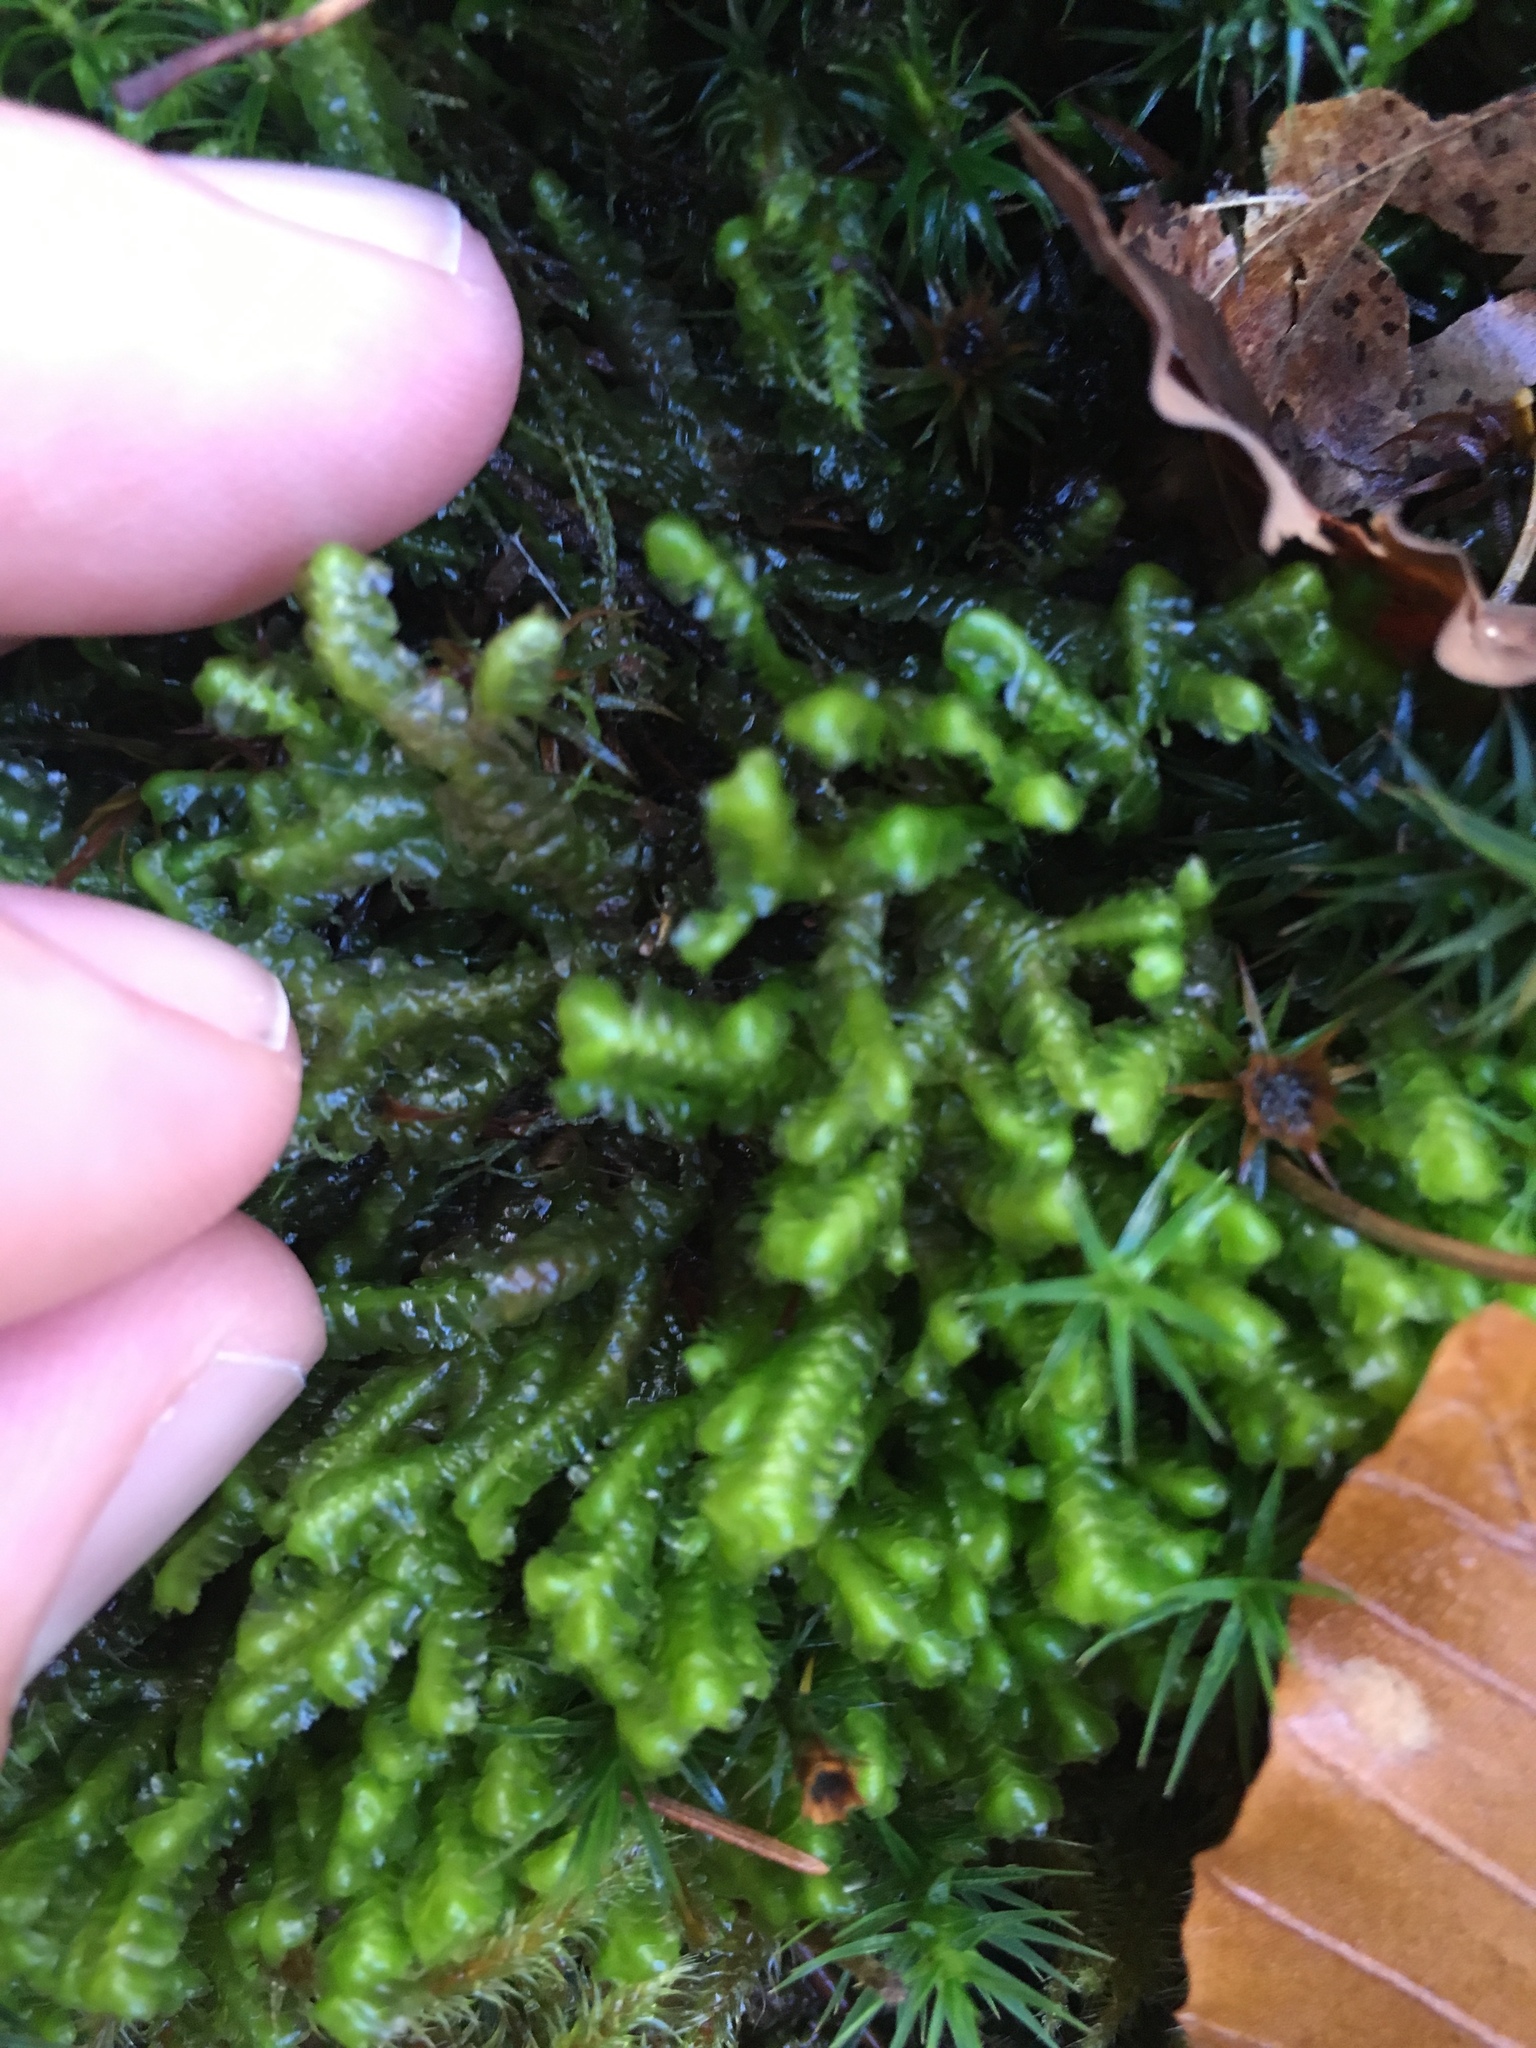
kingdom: Plantae
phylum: Marchantiophyta
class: Jungermanniopsida
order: Jungermanniales
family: Lepidoziaceae
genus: Bazzania
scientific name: Bazzania trilobata
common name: Three-lobed whipwort
